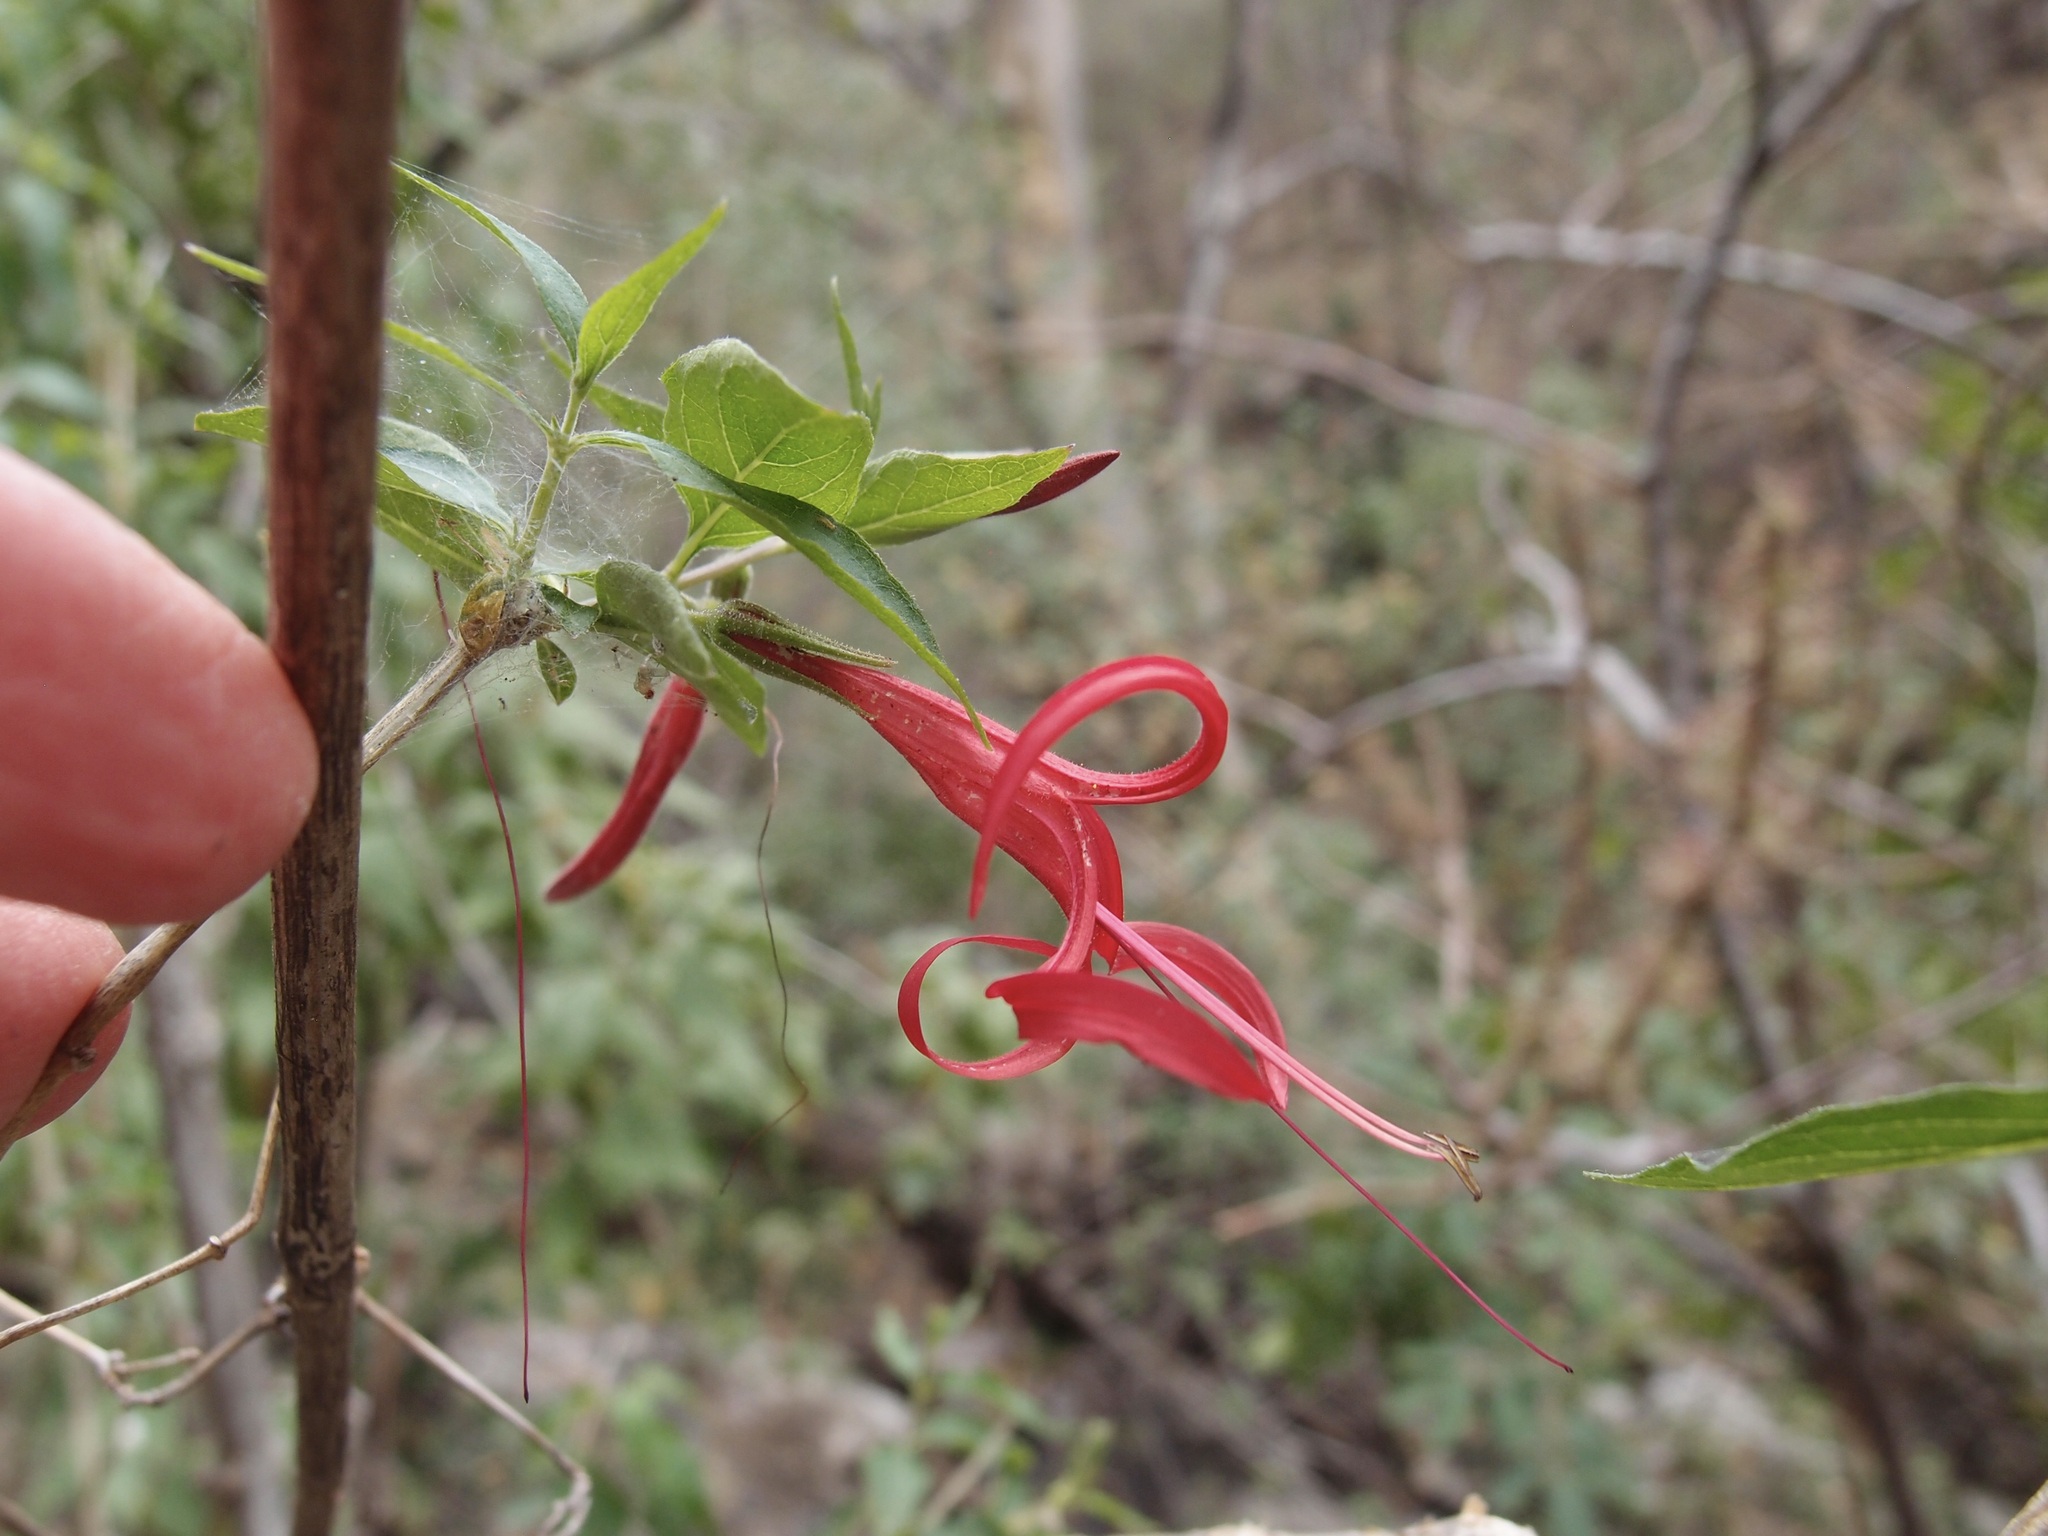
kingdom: Plantae
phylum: Tracheophyta
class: Magnoliopsida
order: Lamiales
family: Acanthaceae
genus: Anisacanthus
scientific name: Anisacanthus andersonii
